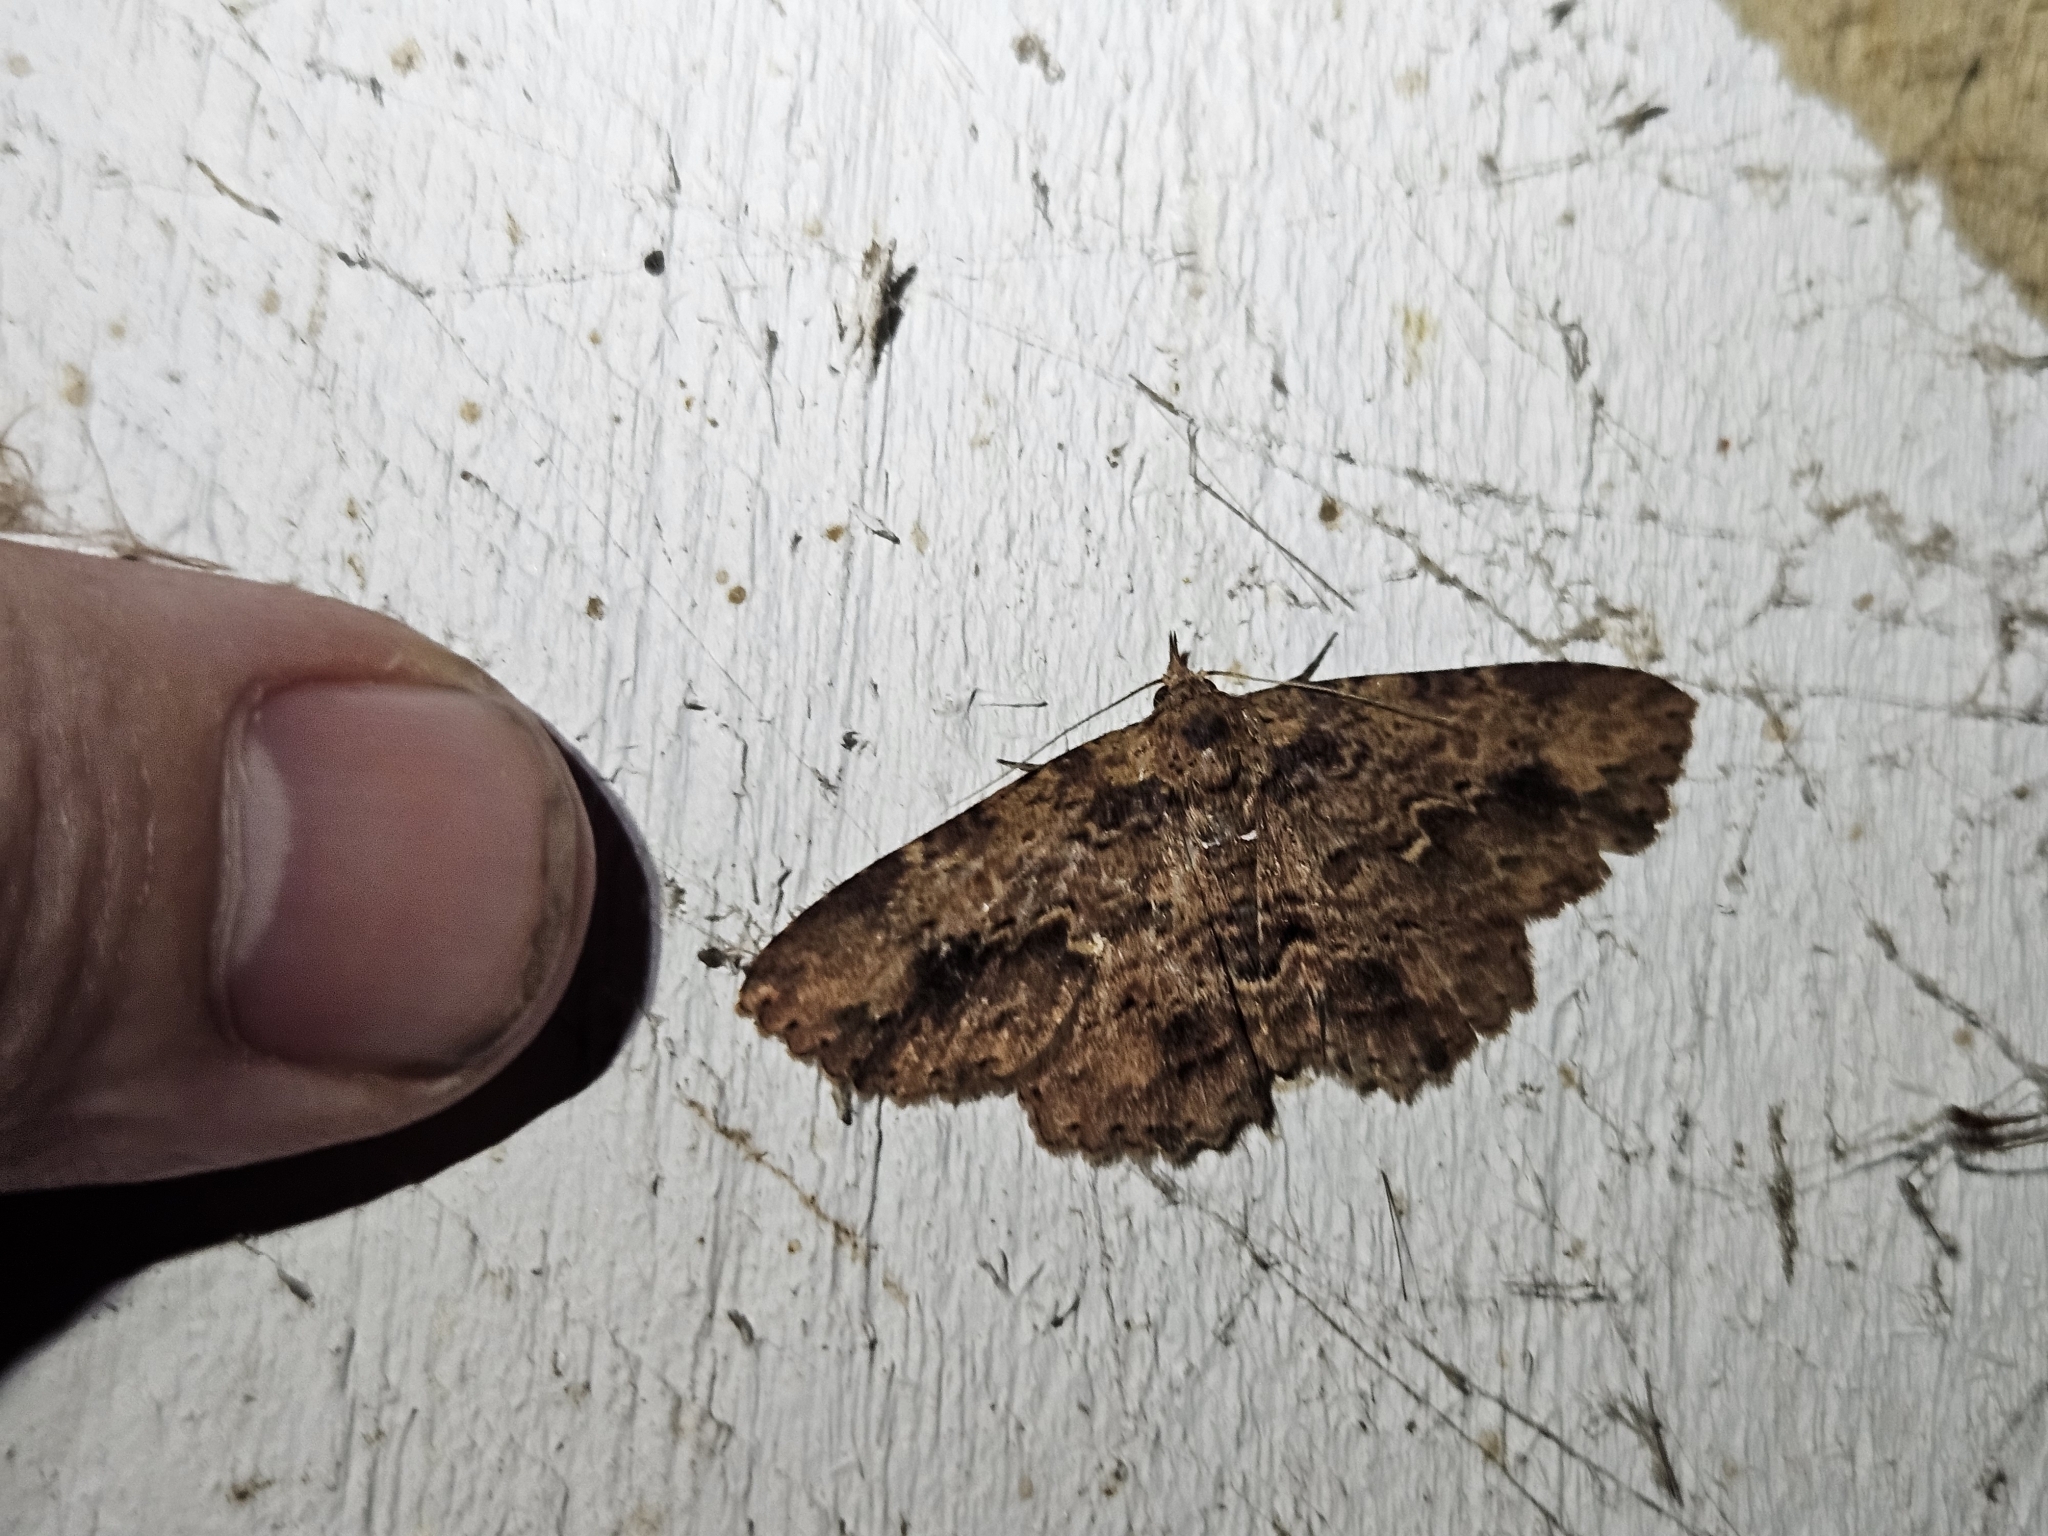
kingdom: Animalia
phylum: Arthropoda
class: Insecta
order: Lepidoptera
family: Erebidae
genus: Artigisa
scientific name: Artigisa melanephele
